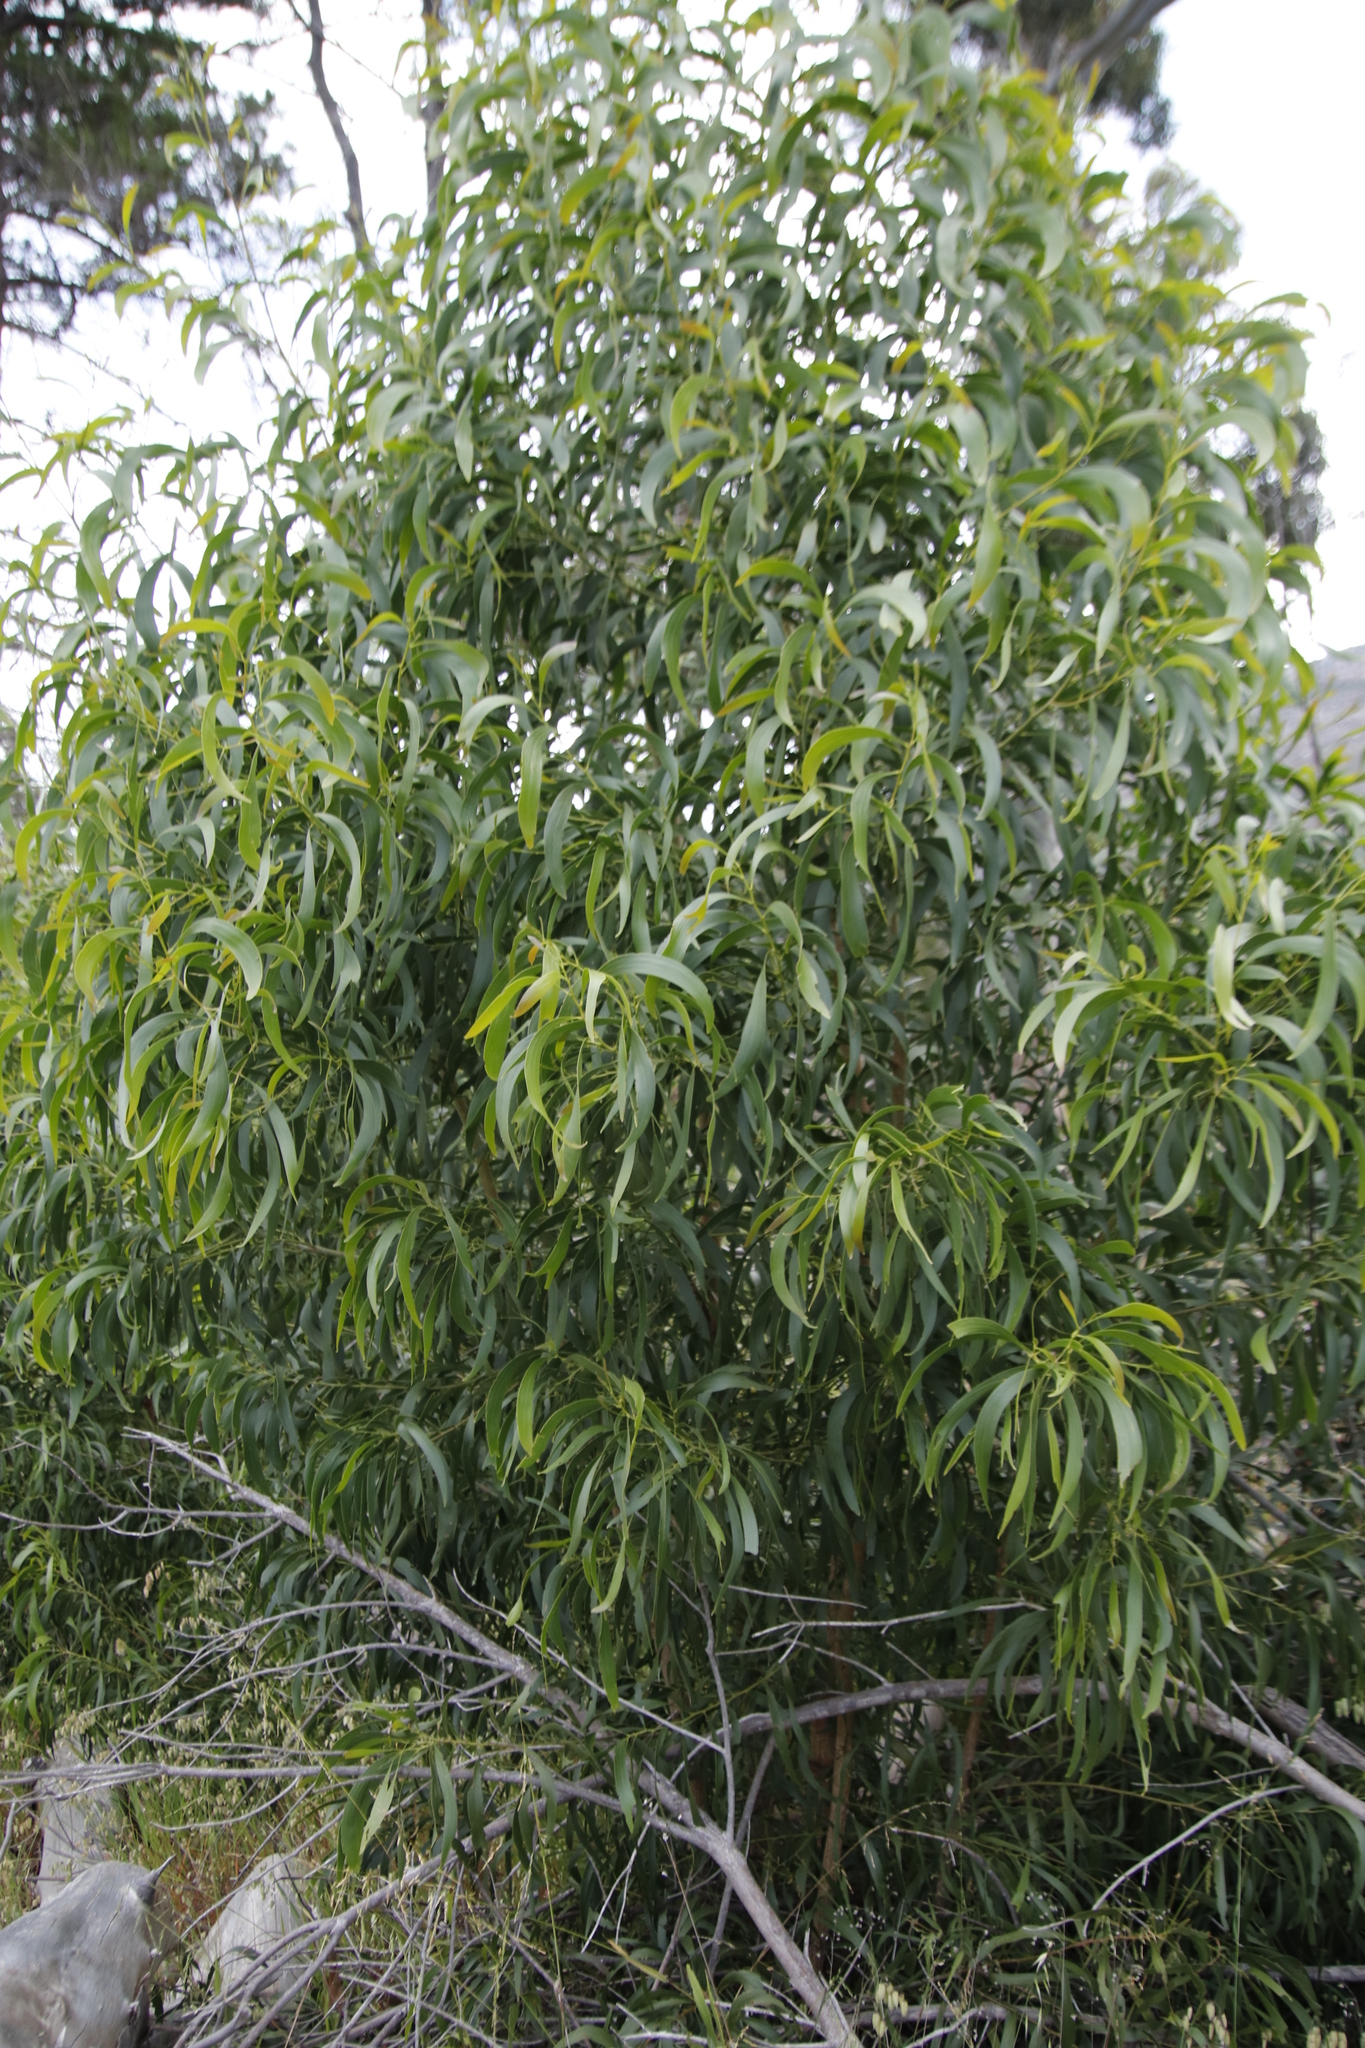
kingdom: Plantae
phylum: Tracheophyta
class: Magnoliopsida
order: Fabales
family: Fabaceae
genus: Acacia
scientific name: Acacia implexa
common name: Black wattle
